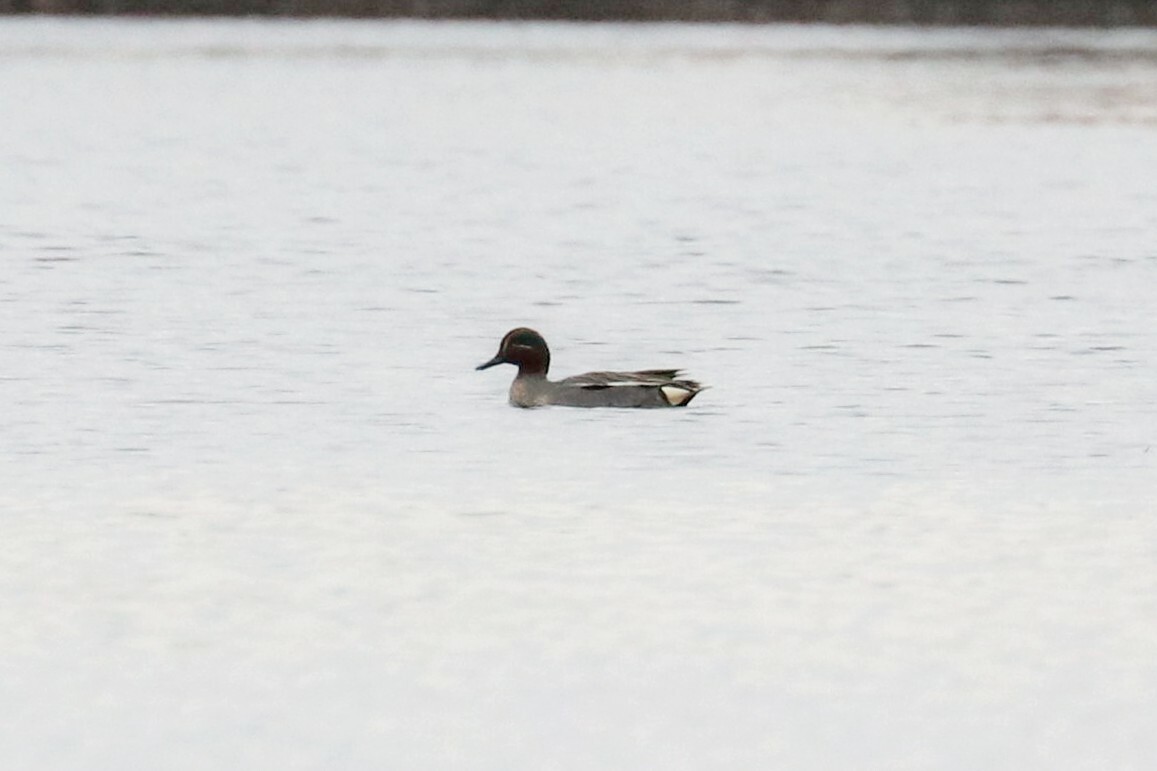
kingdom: Animalia
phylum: Chordata
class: Aves
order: Anseriformes
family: Anatidae
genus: Anas
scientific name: Anas crecca
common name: Eurasian teal
